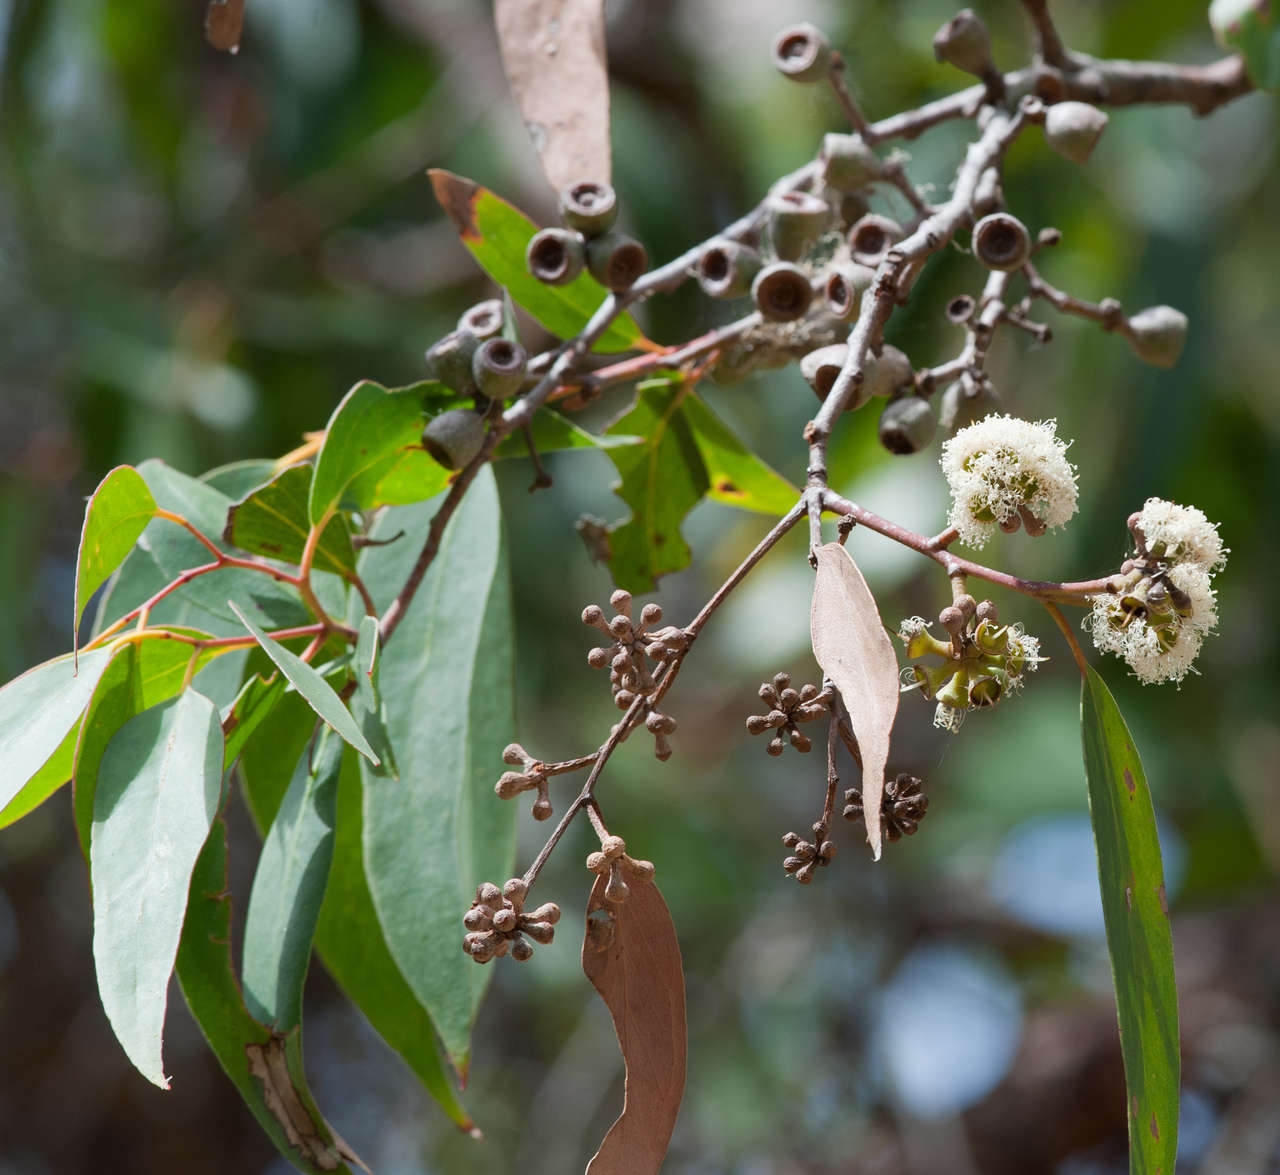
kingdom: Plantae
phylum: Tracheophyta
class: Magnoliopsida
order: Myrtales
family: Myrtaceae
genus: Eucalyptus
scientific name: Eucalyptus obliqua
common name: Messmate stringybark
